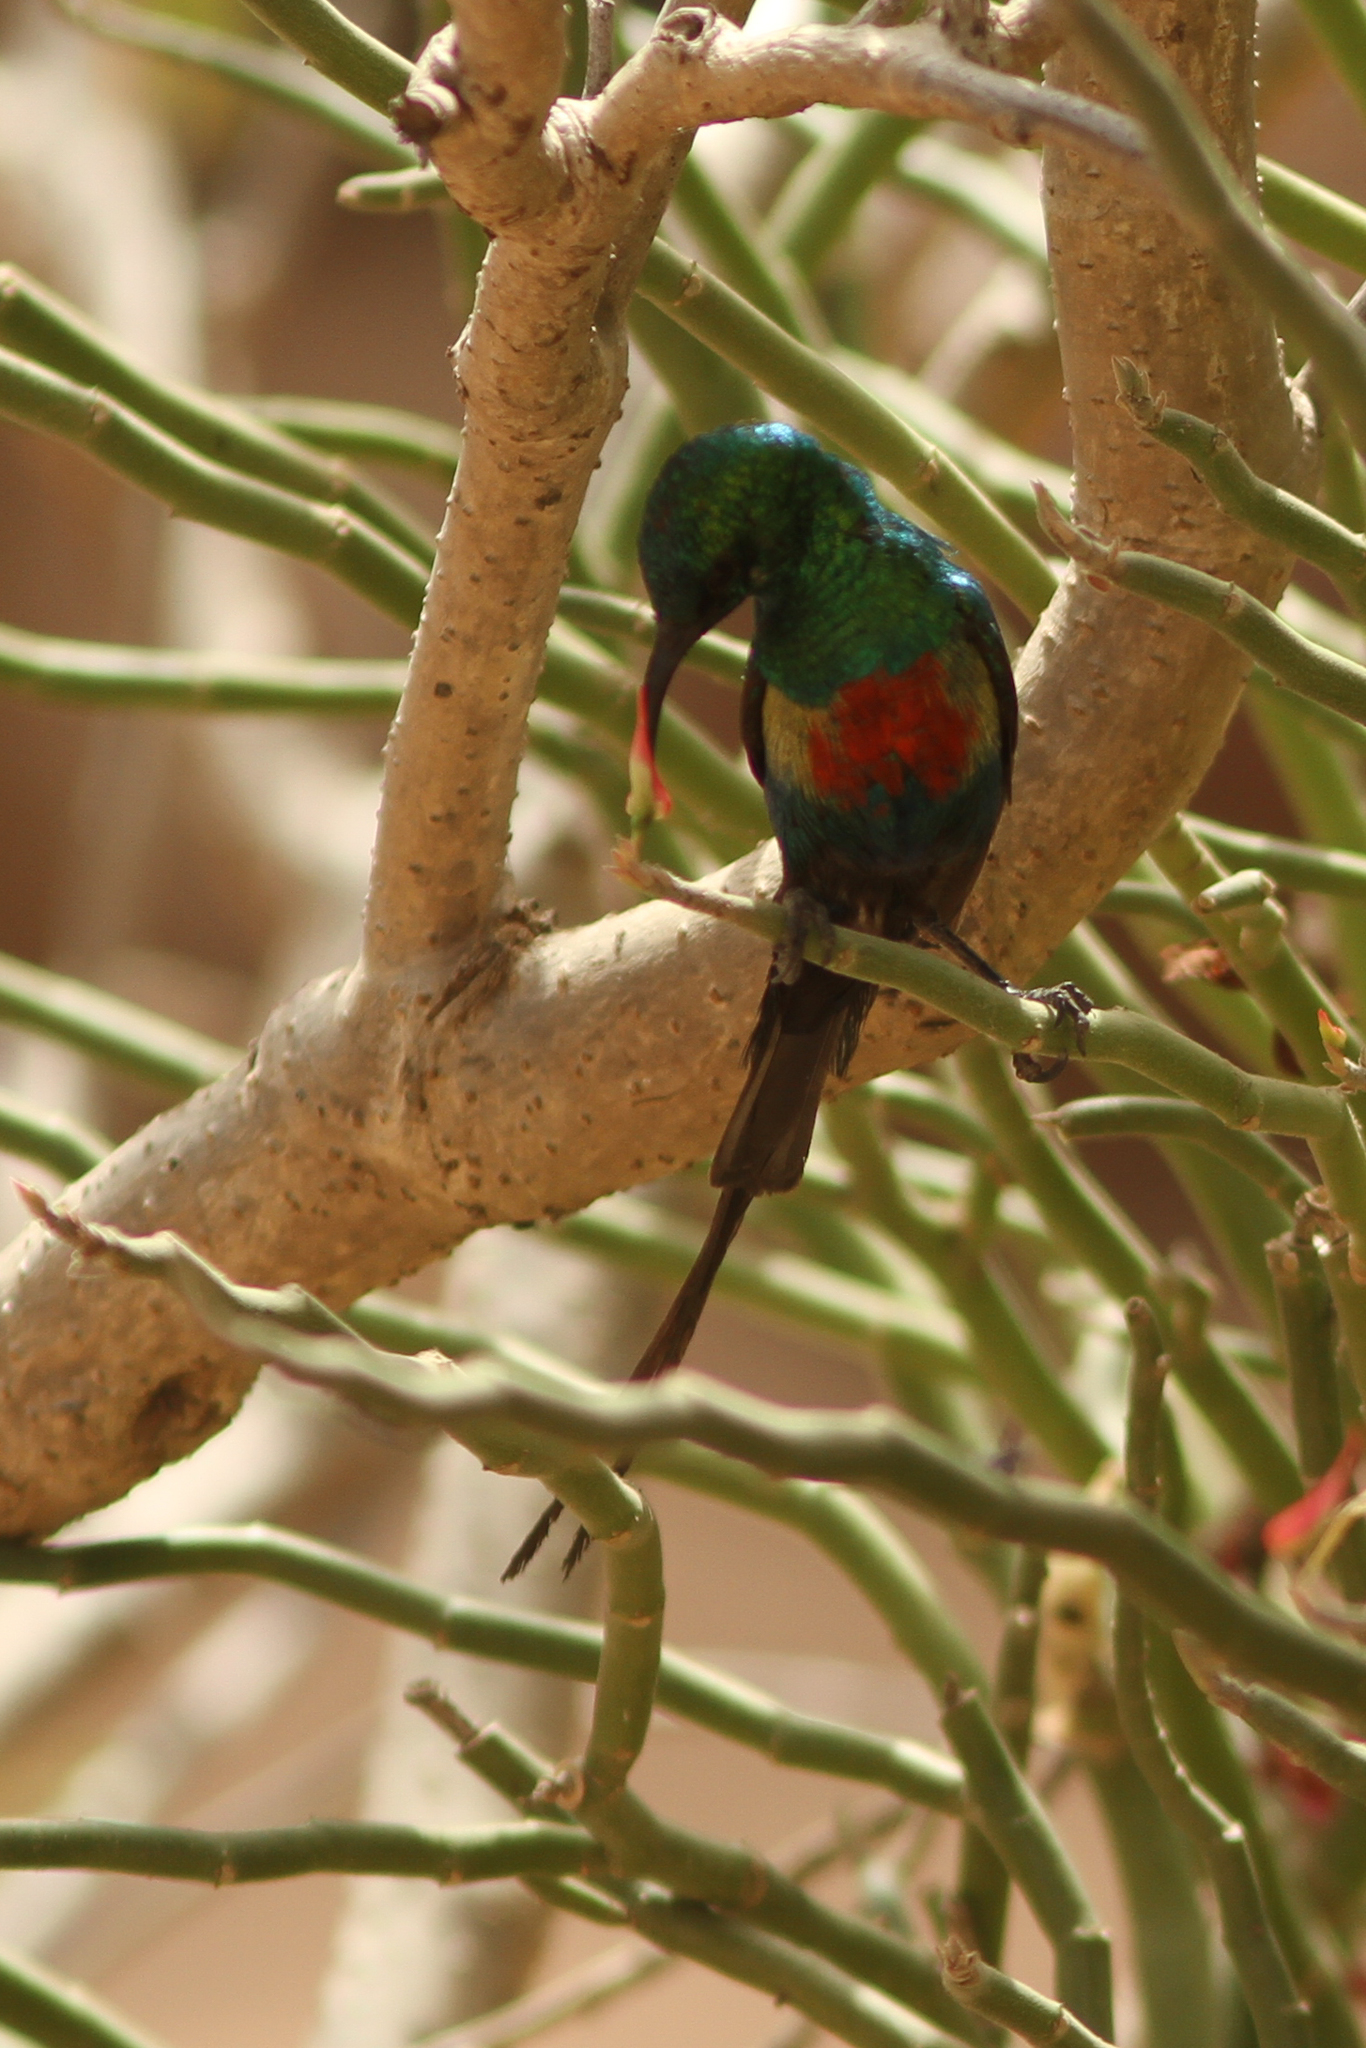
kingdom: Animalia
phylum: Chordata
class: Aves
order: Passeriformes
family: Nectariniidae
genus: Cinnyris
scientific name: Cinnyris pulchellus
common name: Beautiful sunbird
